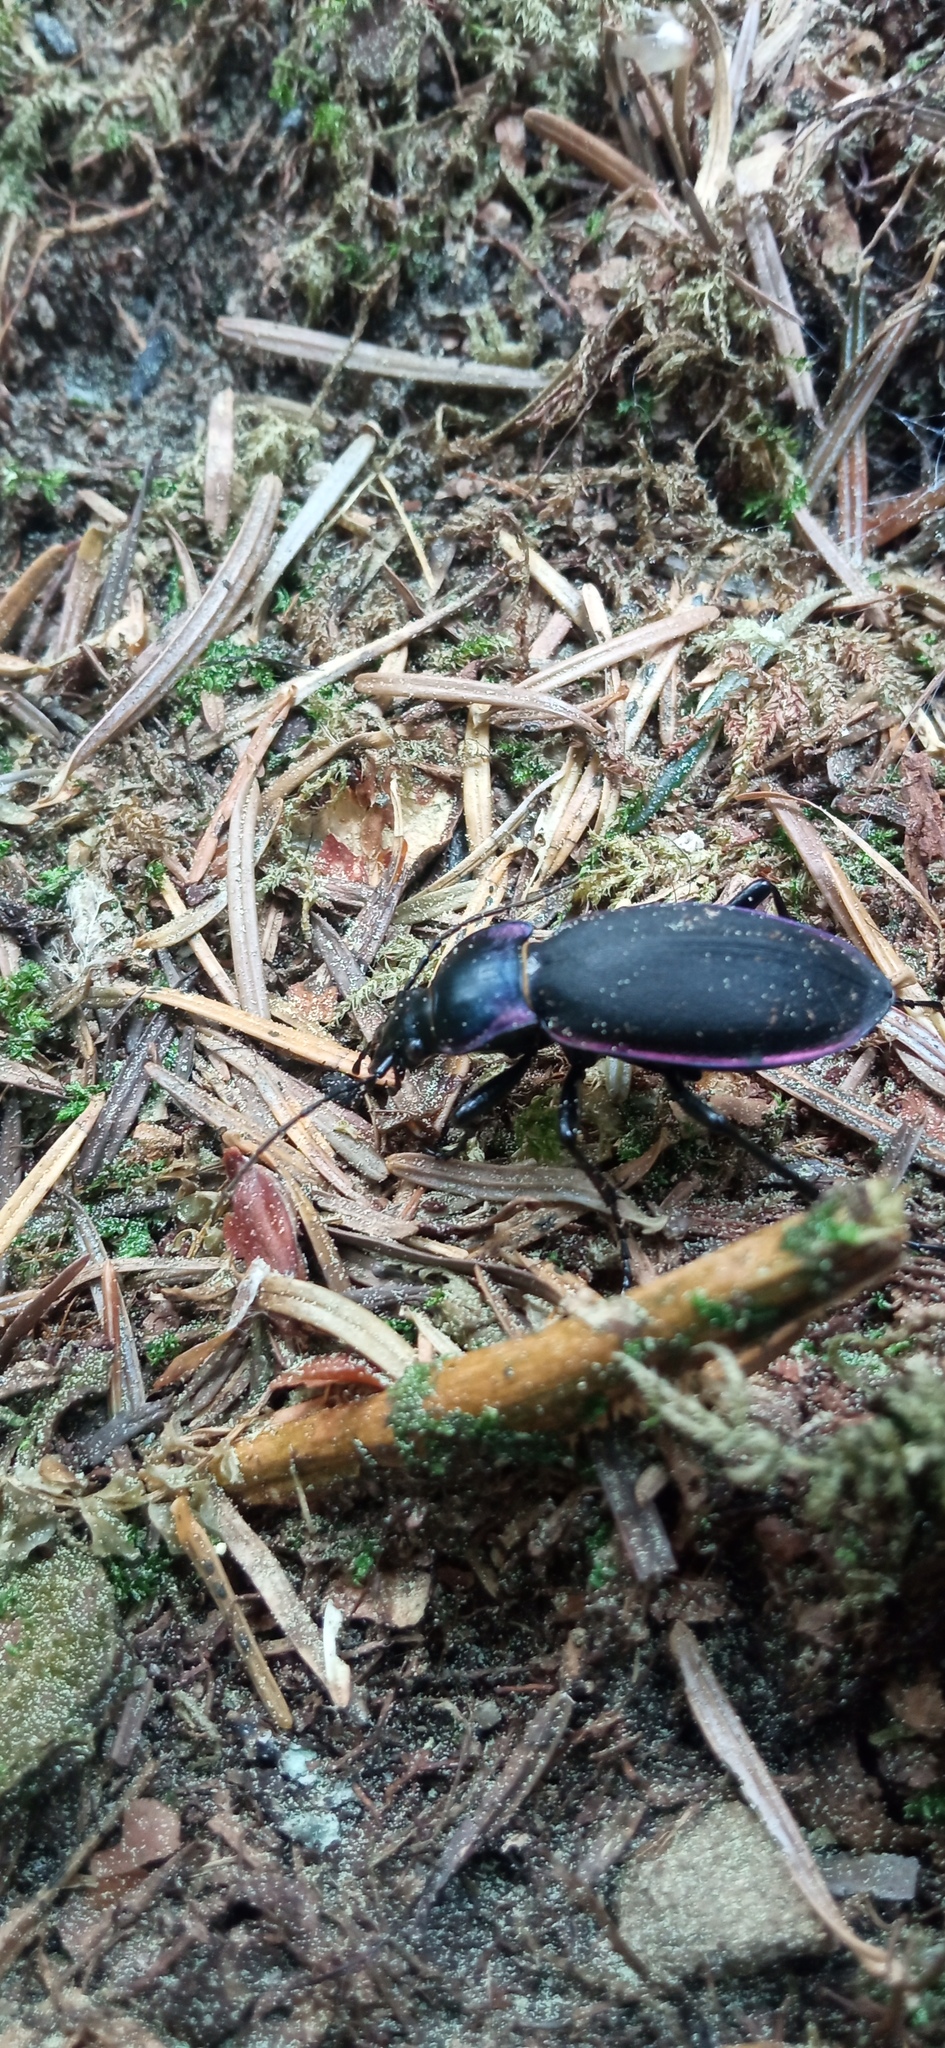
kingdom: Animalia
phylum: Arthropoda
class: Insecta
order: Coleoptera
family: Carabidae
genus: Carabus
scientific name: Carabus violaceus
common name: Violet ground beetle
